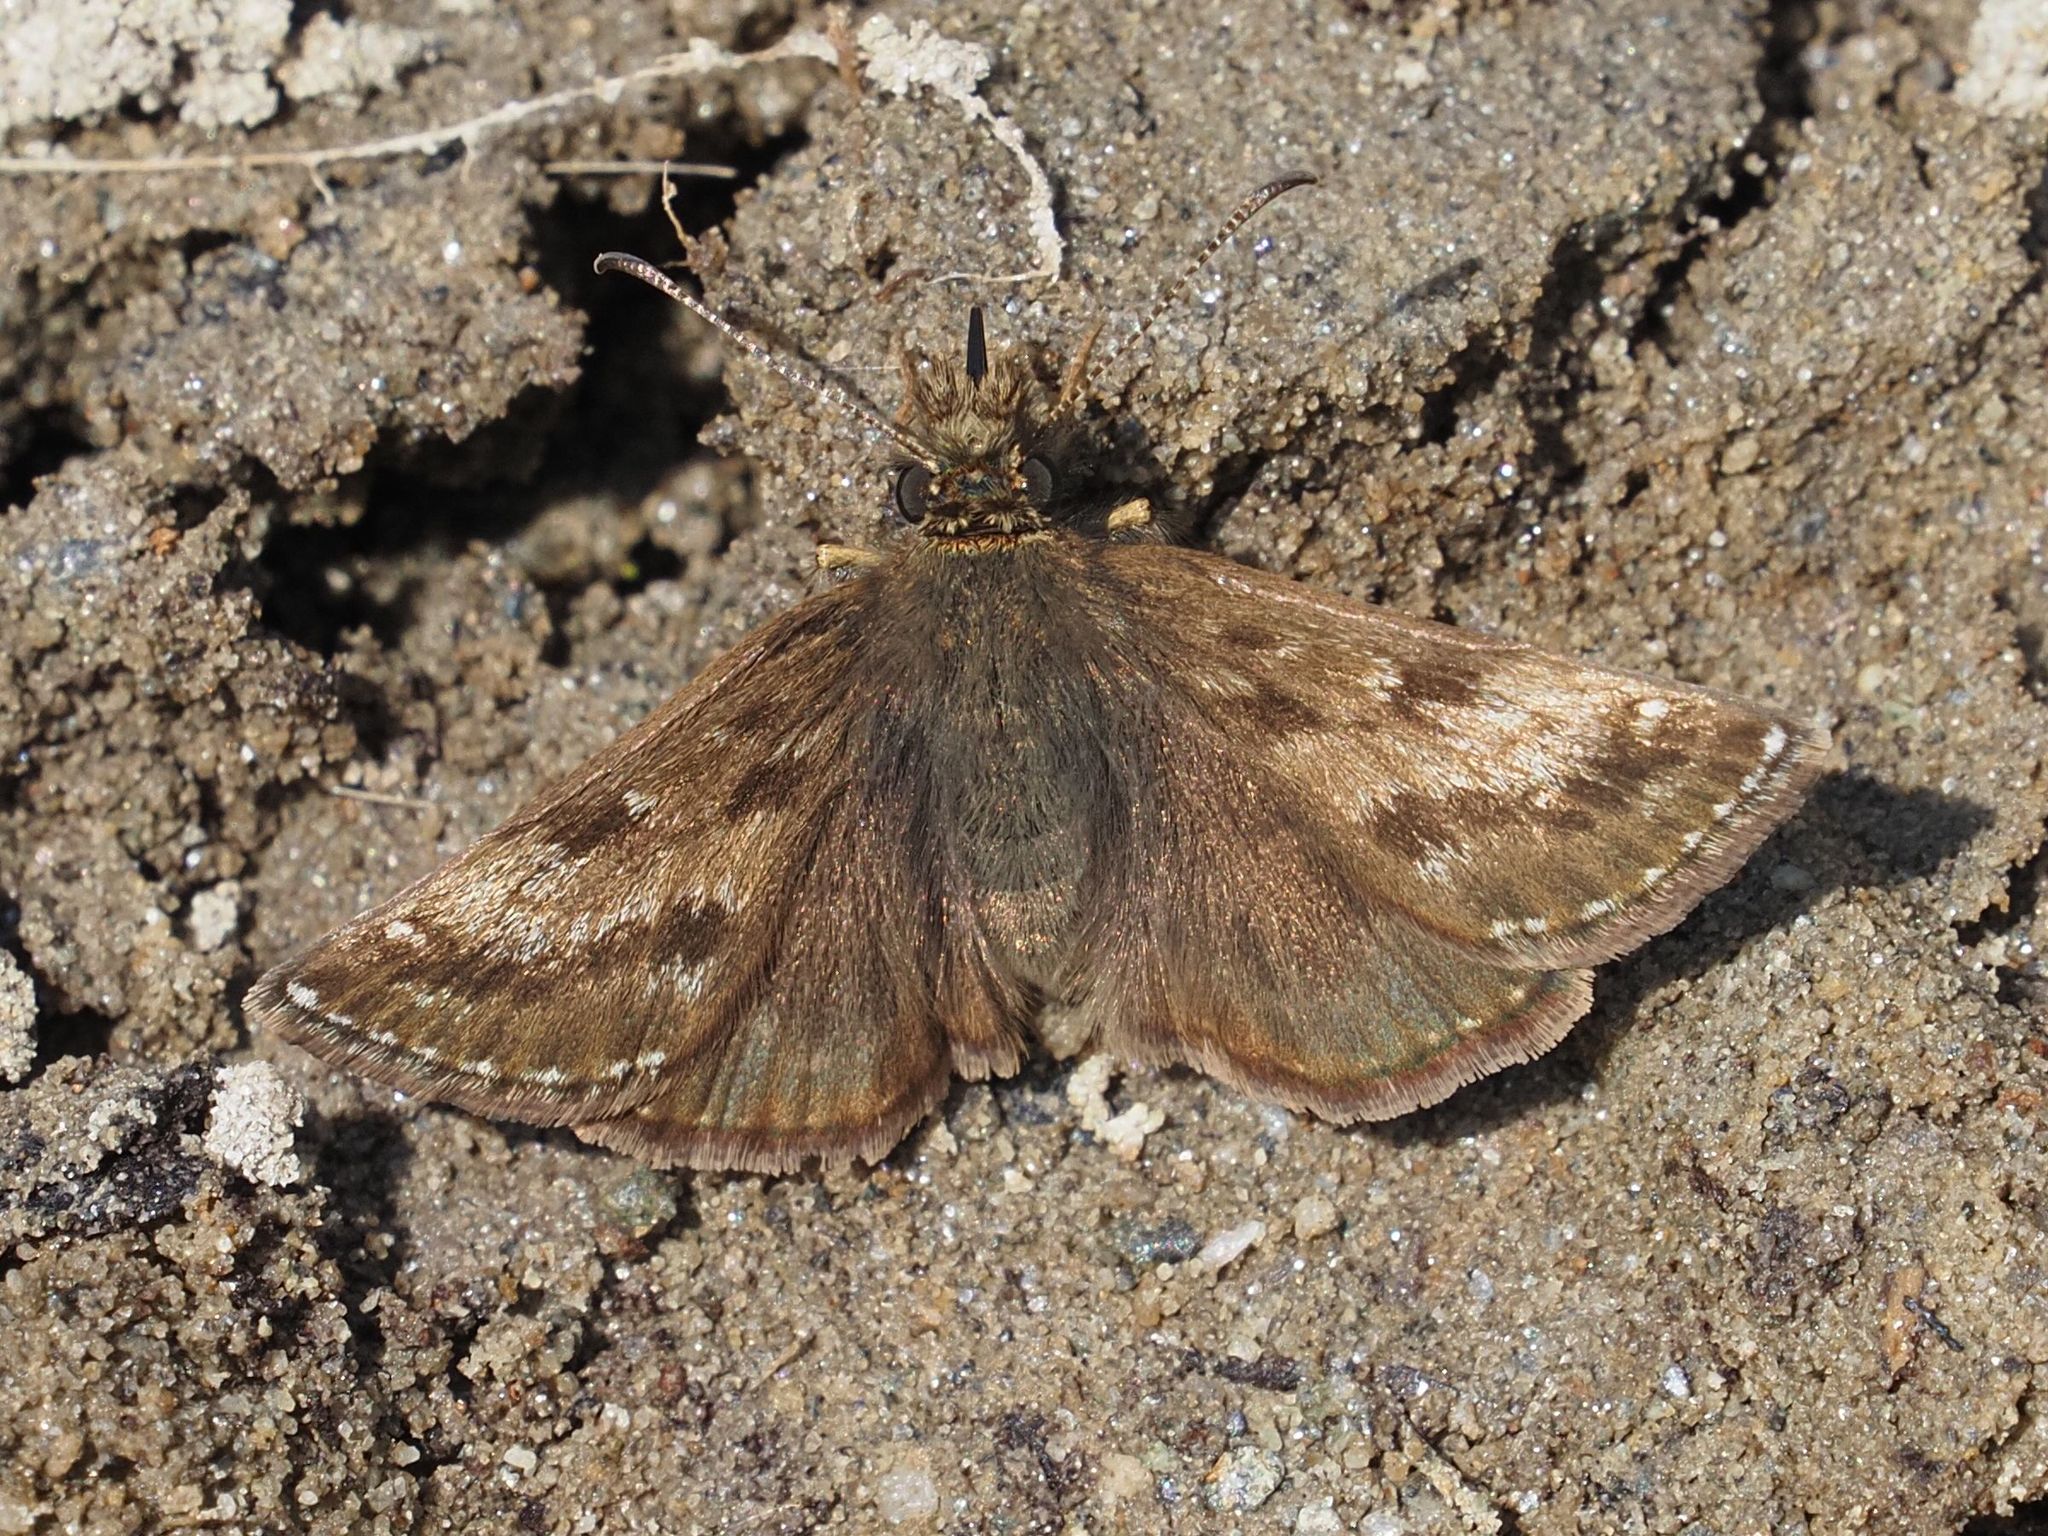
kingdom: Animalia
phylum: Arthropoda
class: Insecta
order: Lepidoptera
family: Hesperiidae
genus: Erynnis
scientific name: Erynnis tages
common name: Dingy skipper
